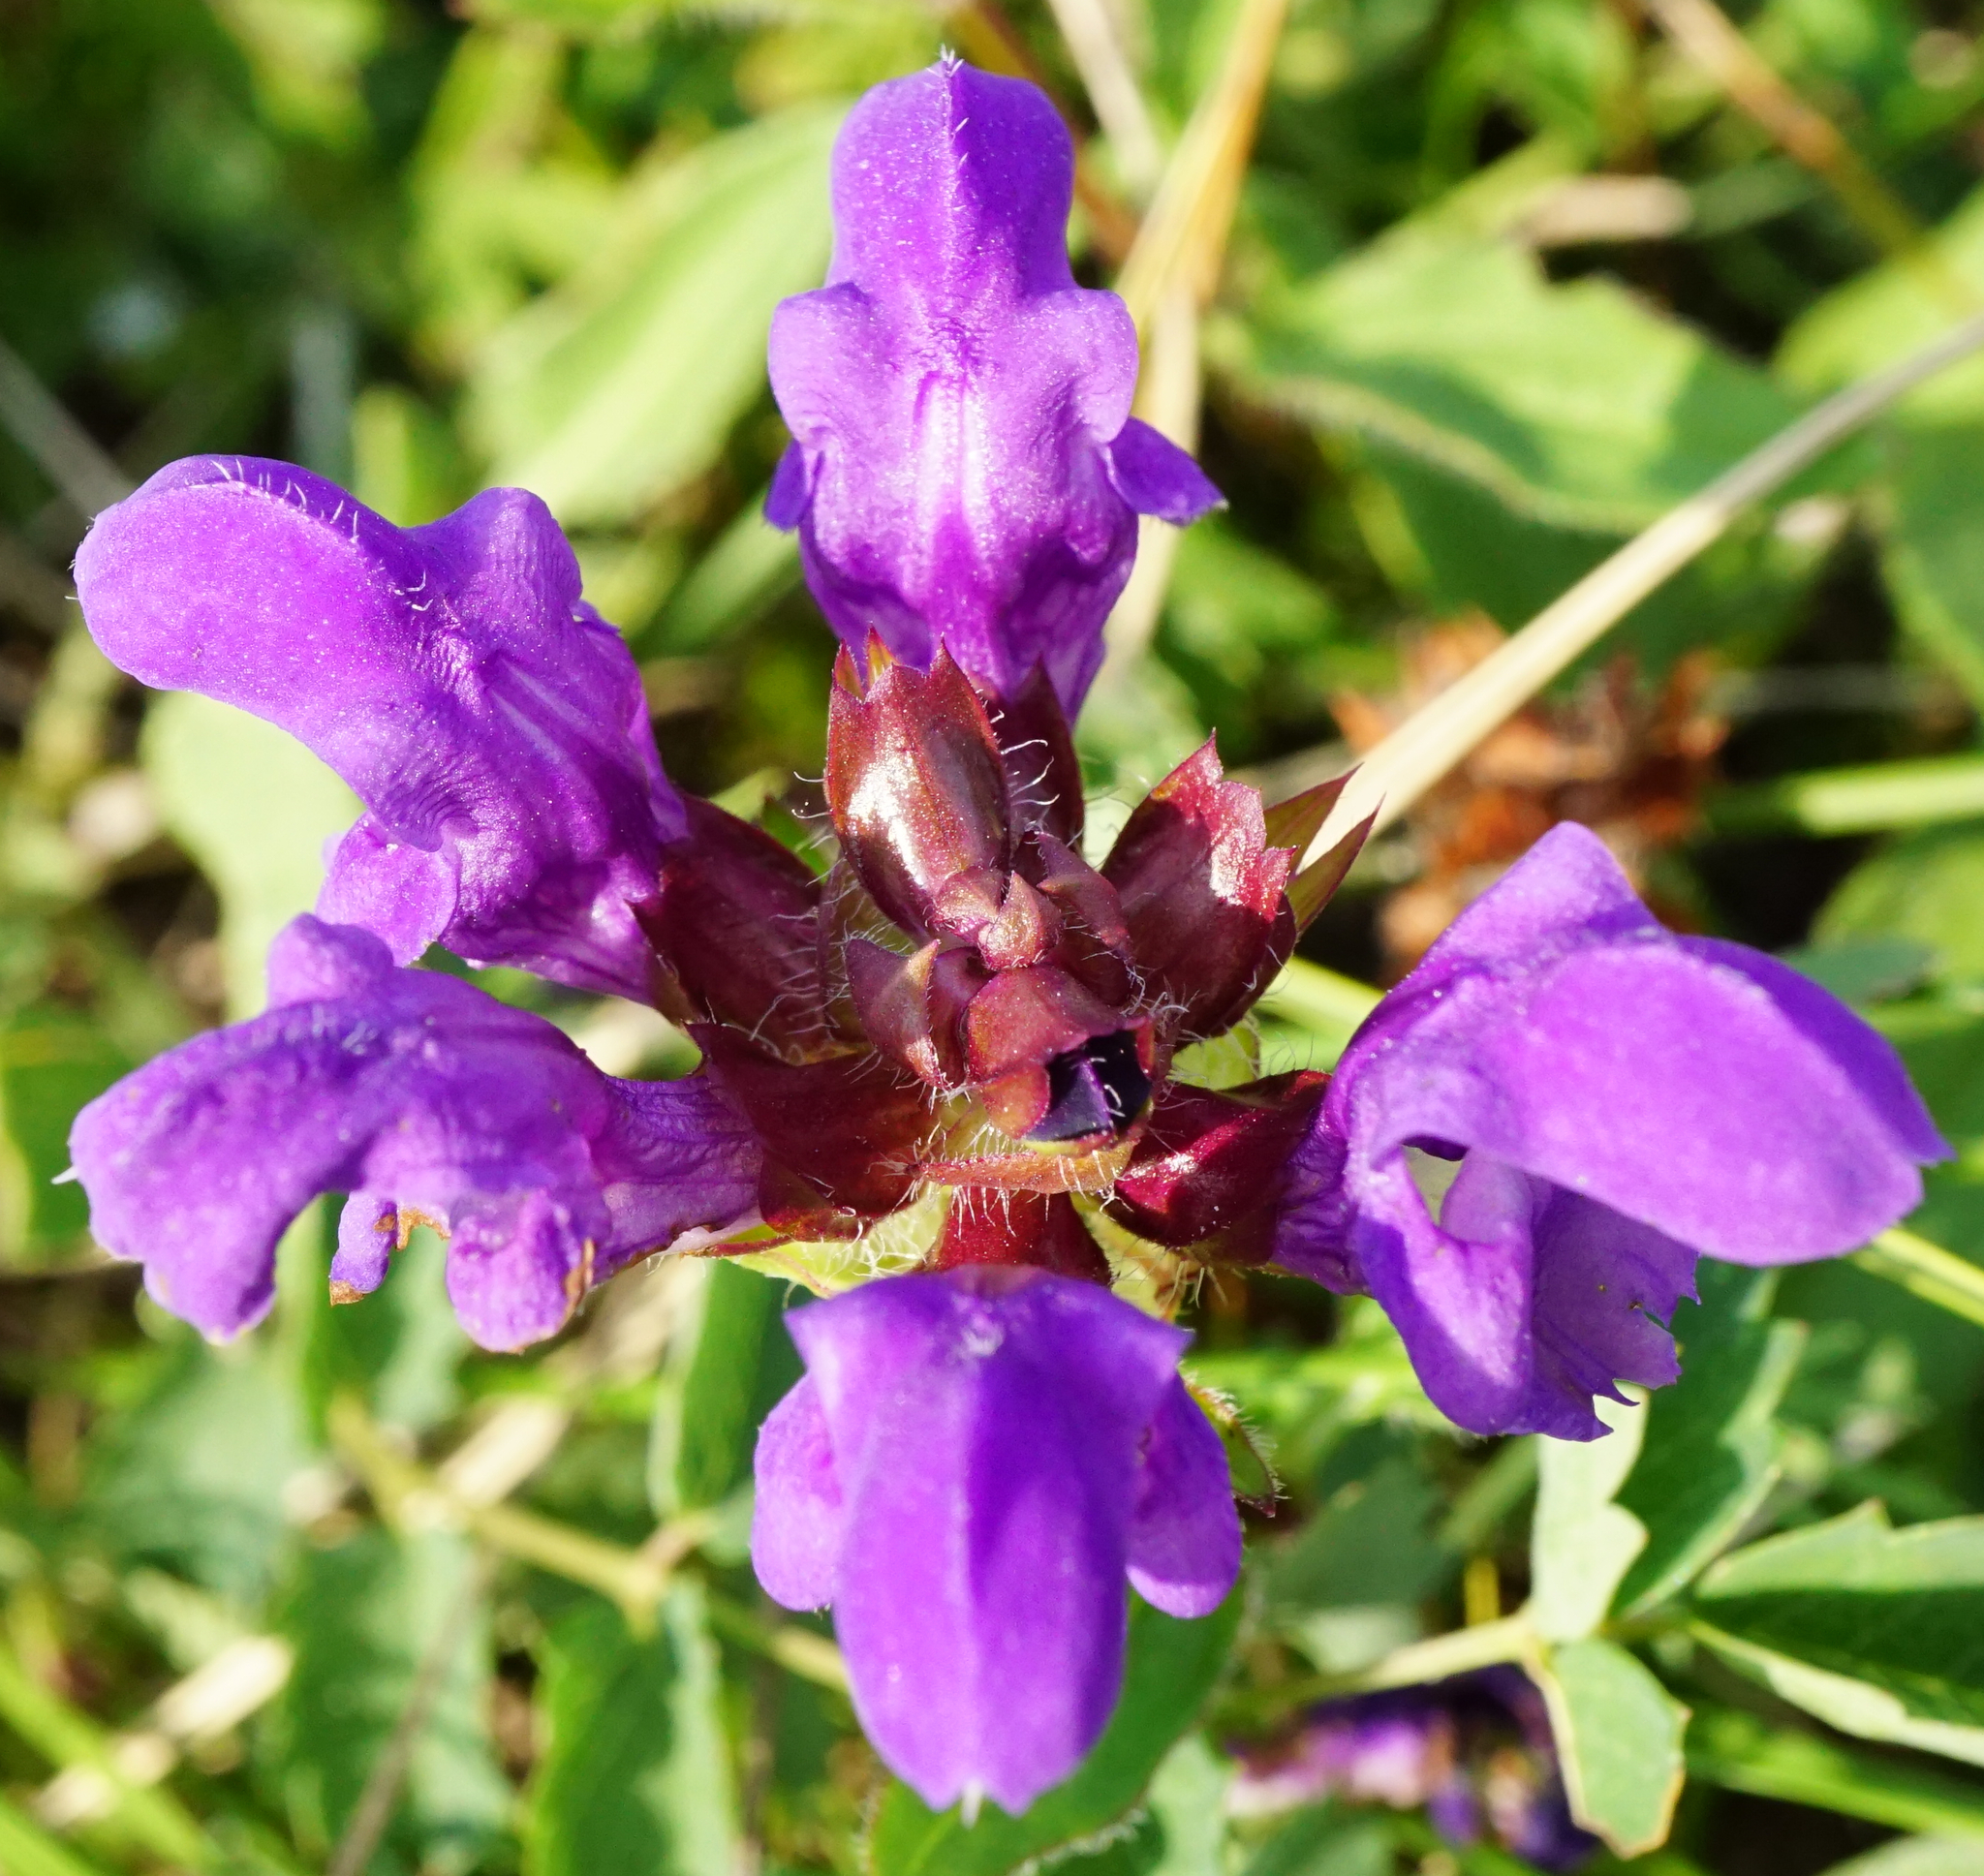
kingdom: Plantae
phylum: Tracheophyta
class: Magnoliopsida
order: Lamiales
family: Lamiaceae
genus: Prunella
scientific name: Prunella grandiflora
